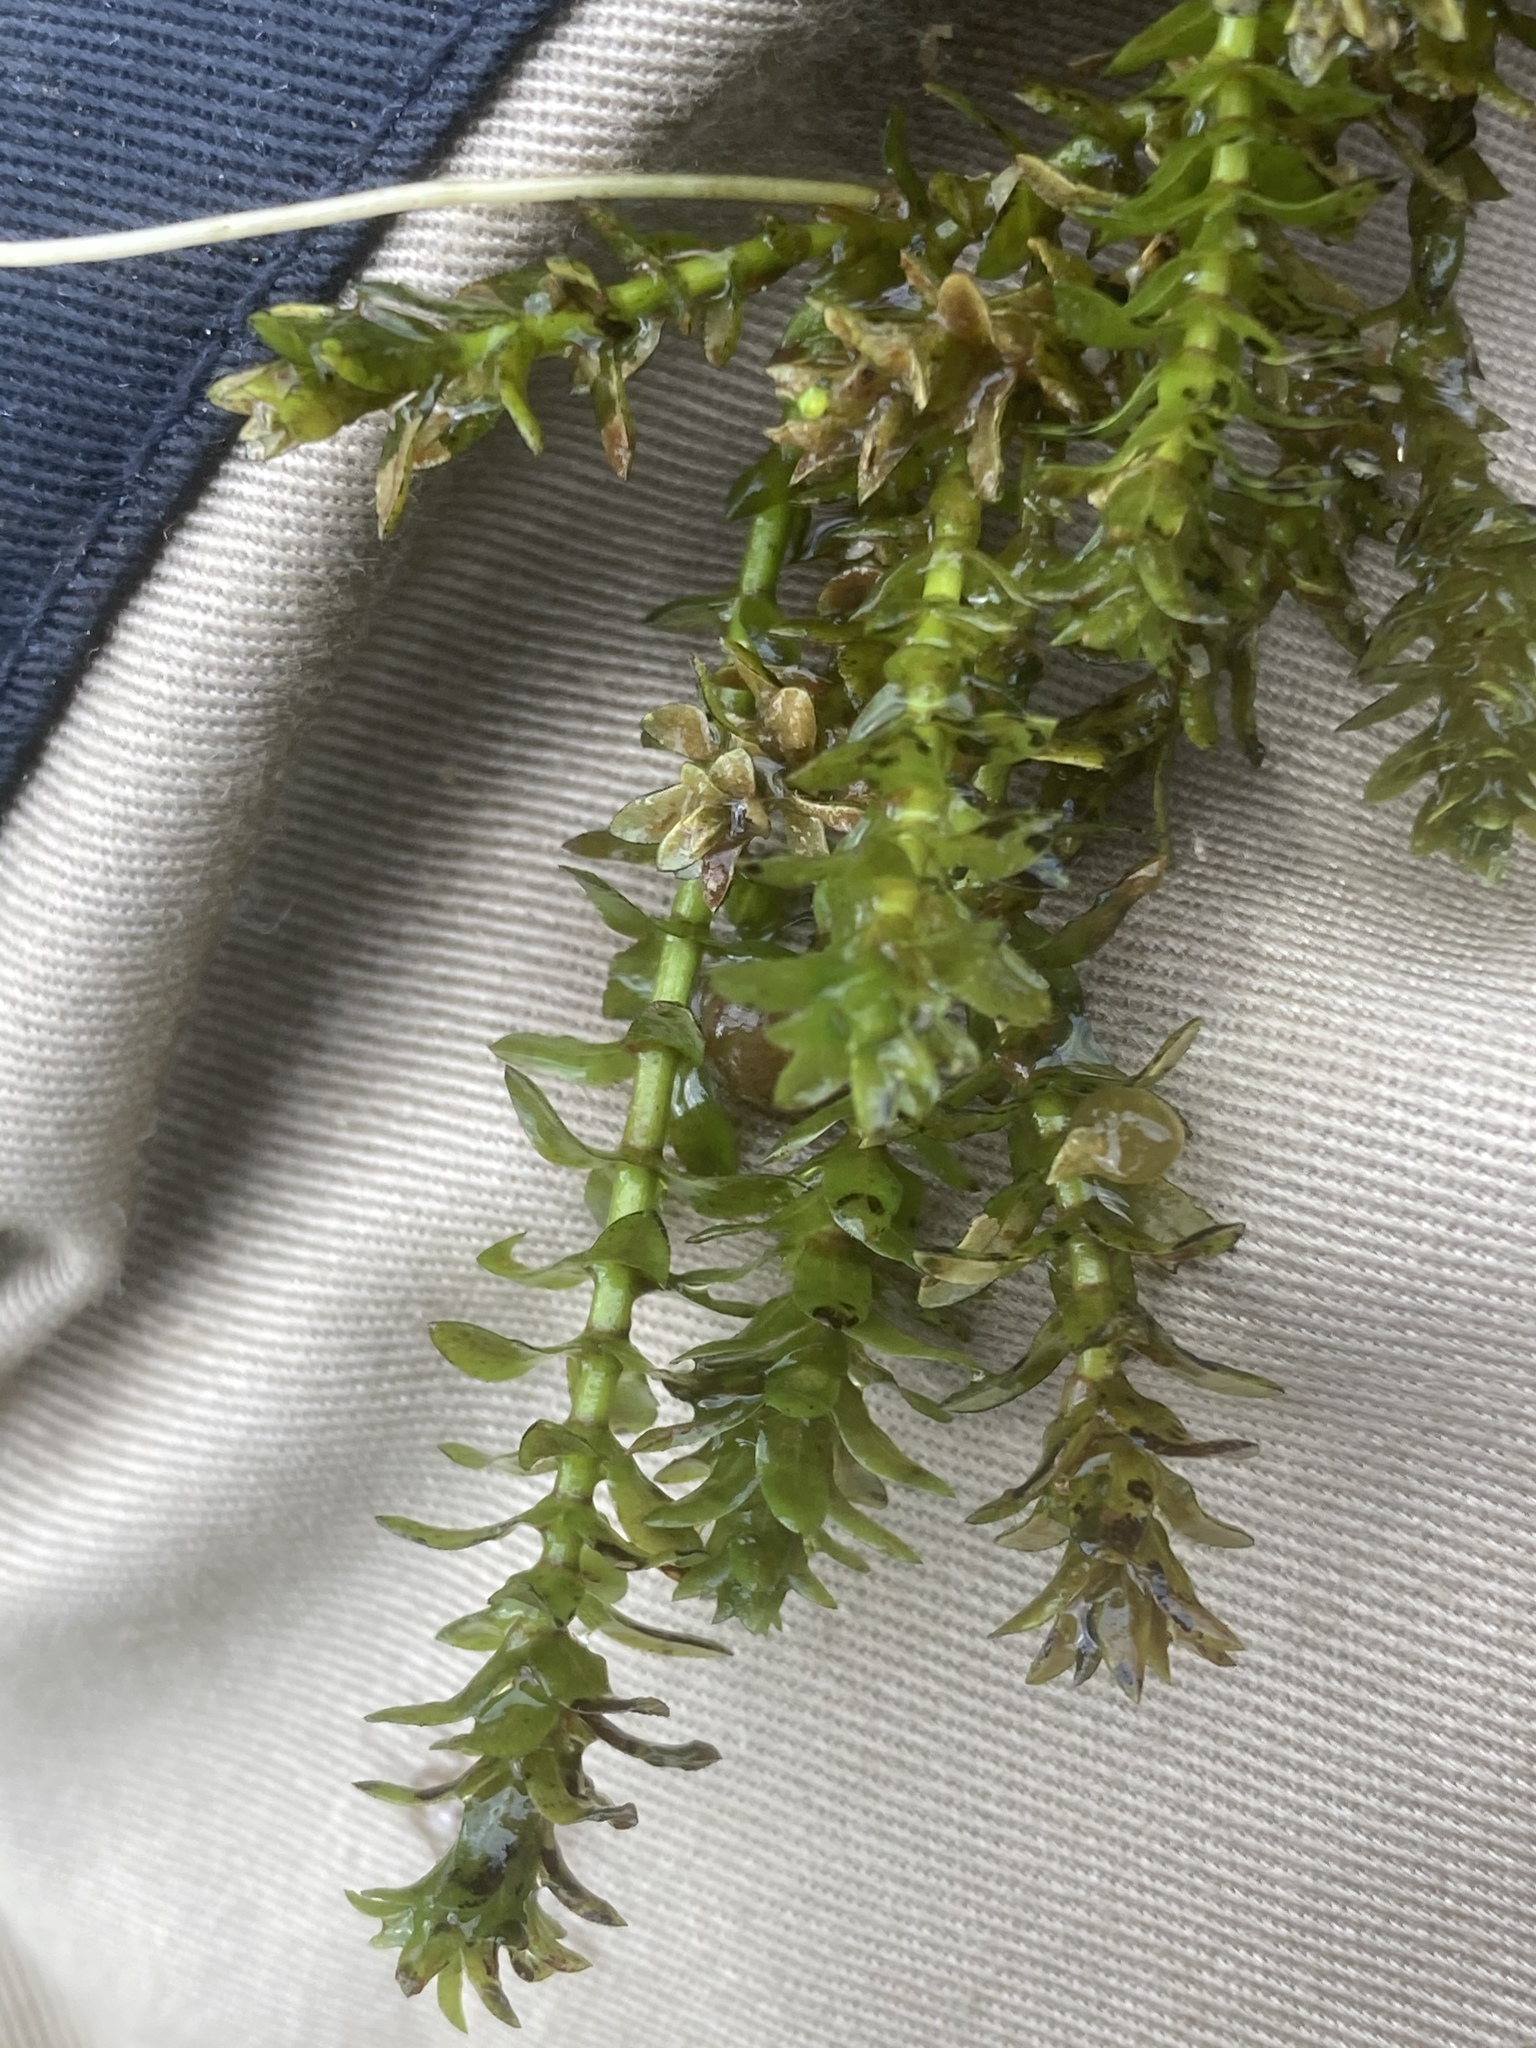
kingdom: Plantae
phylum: Tracheophyta
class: Liliopsida
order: Alismatales
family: Hydrocharitaceae
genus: Elodea
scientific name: Elodea canadensis
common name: Canadian waterweed
